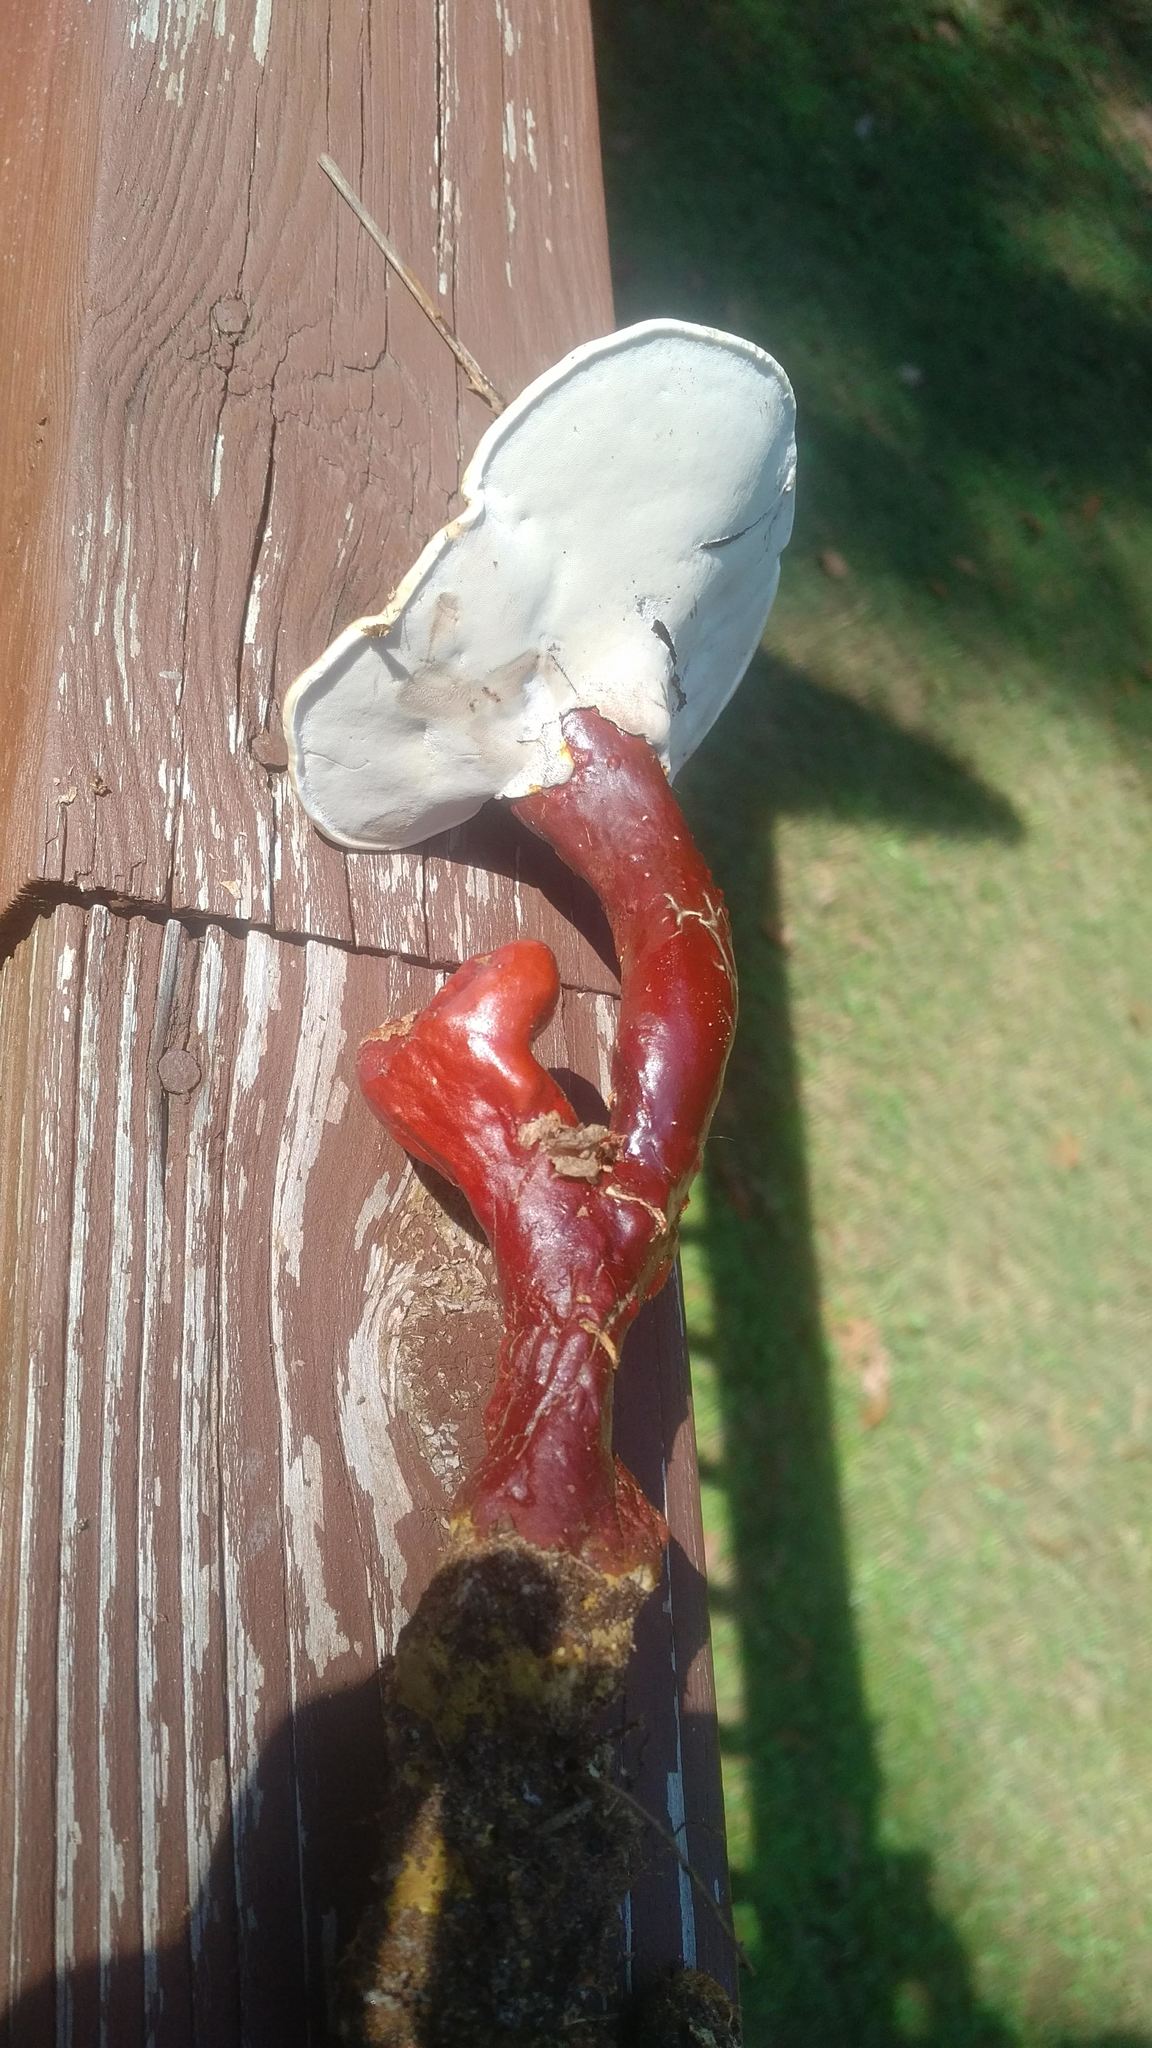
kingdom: Fungi
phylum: Basidiomycota
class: Agaricomycetes
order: Polyporales
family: Polyporaceae
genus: Ganoderma
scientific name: Ganoderma curtisii
